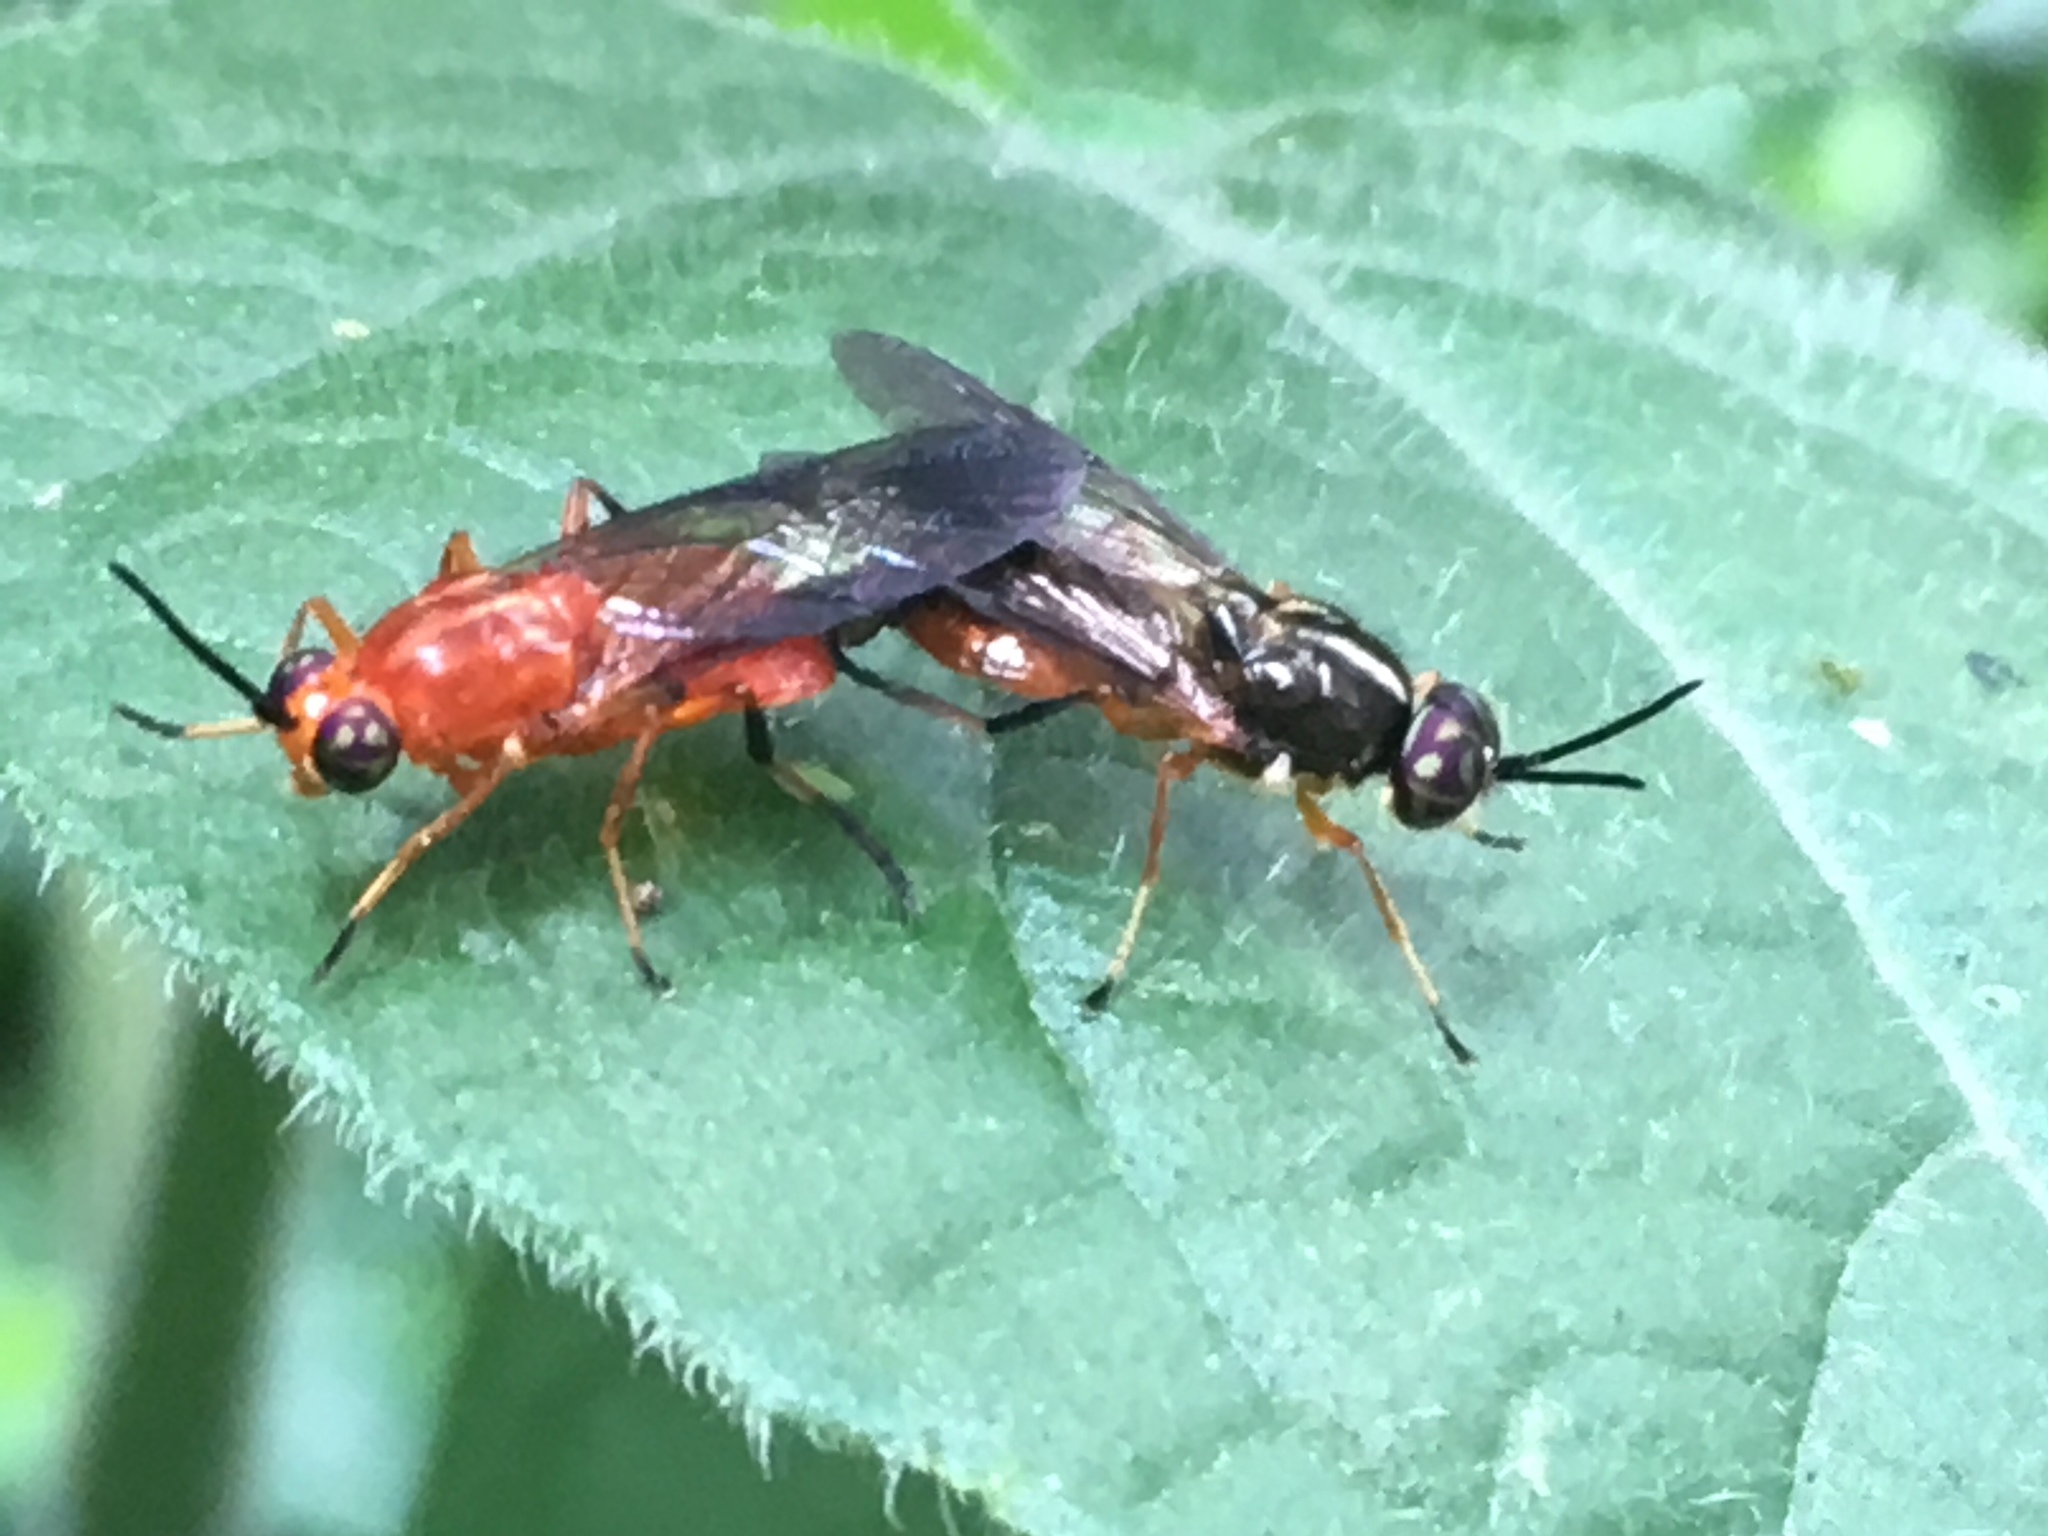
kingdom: Animalia
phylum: Arthropoda
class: Insecta
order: Diptera
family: Stratiomyidae
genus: Cyphomyia
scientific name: Cyphomyia dispar
